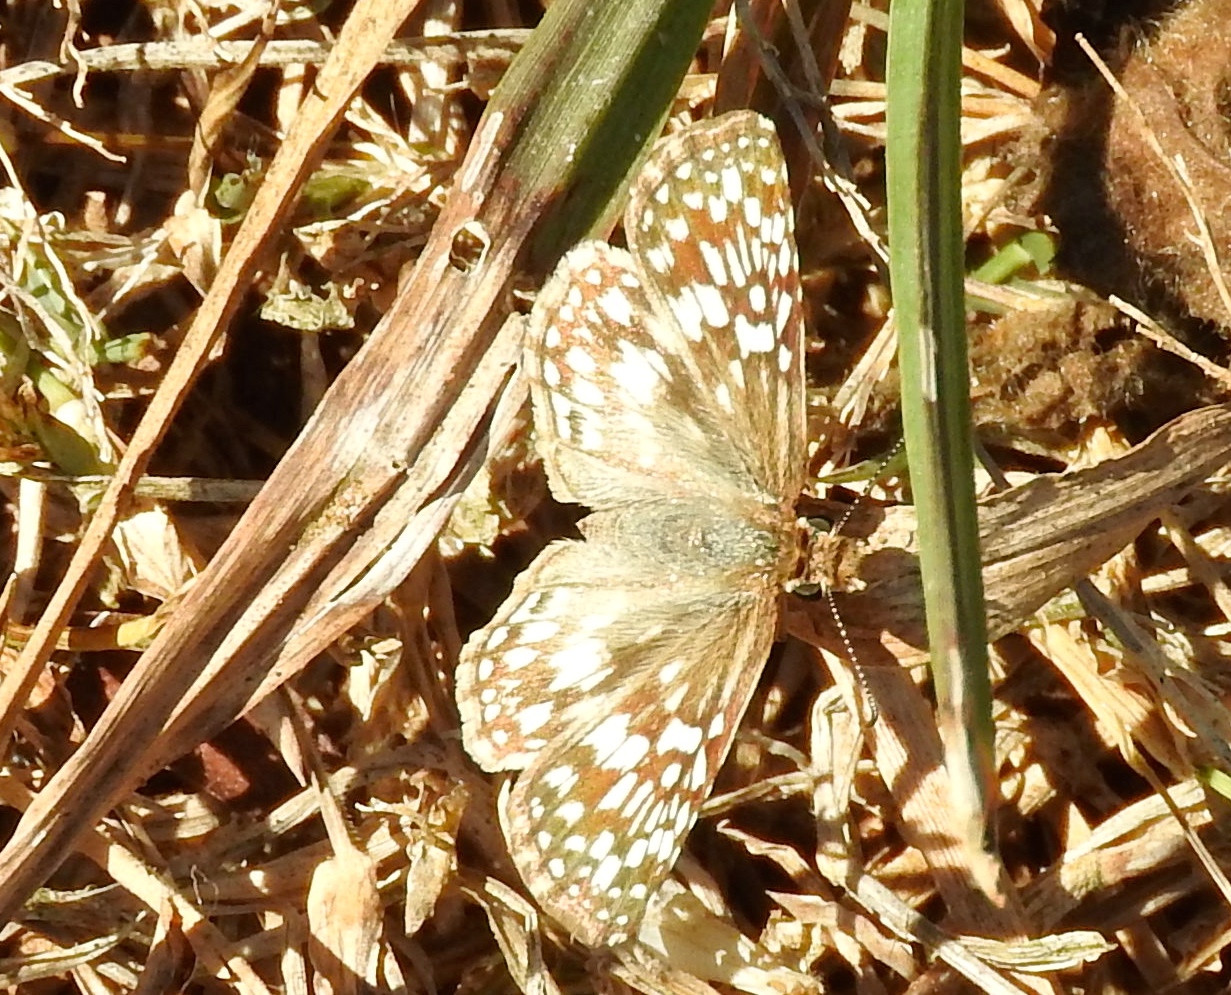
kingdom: Animalia
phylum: Arthropoda
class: Insecta
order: Lepidoptera
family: Hesperiidae
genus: Burnsius
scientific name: Burnsius
